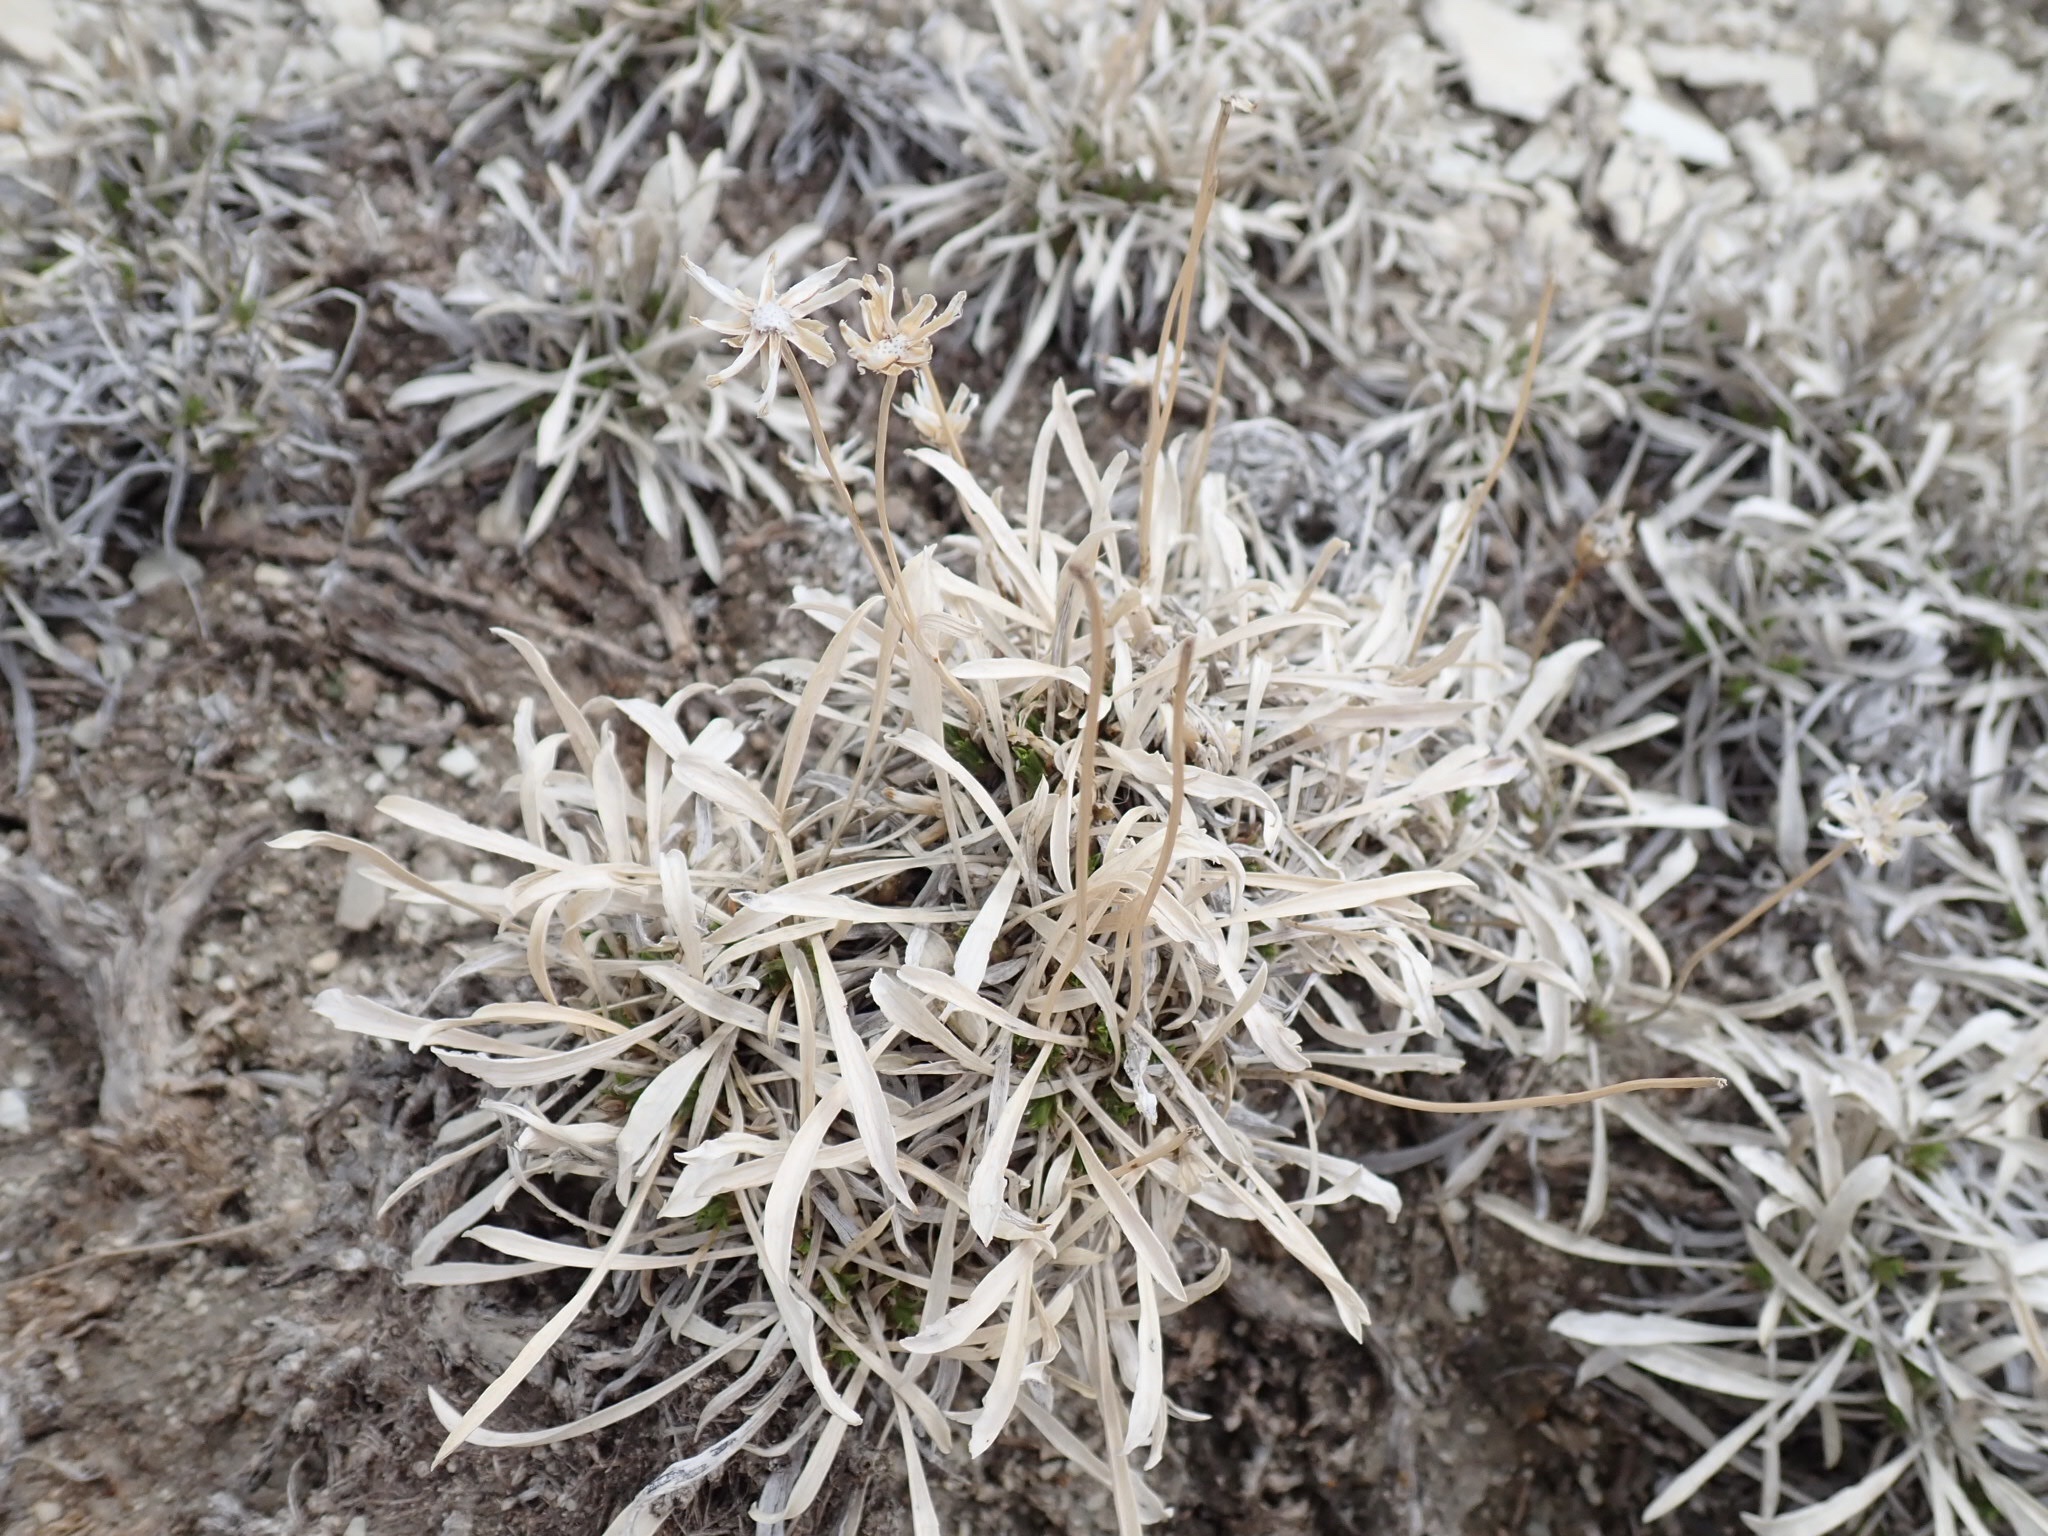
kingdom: Plantae
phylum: Tracheophyta
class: Magnoliopsida
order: Asterales
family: Asteraceae
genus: Stenotus
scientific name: Stenotus armerioides
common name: Thrifty goldenweed
